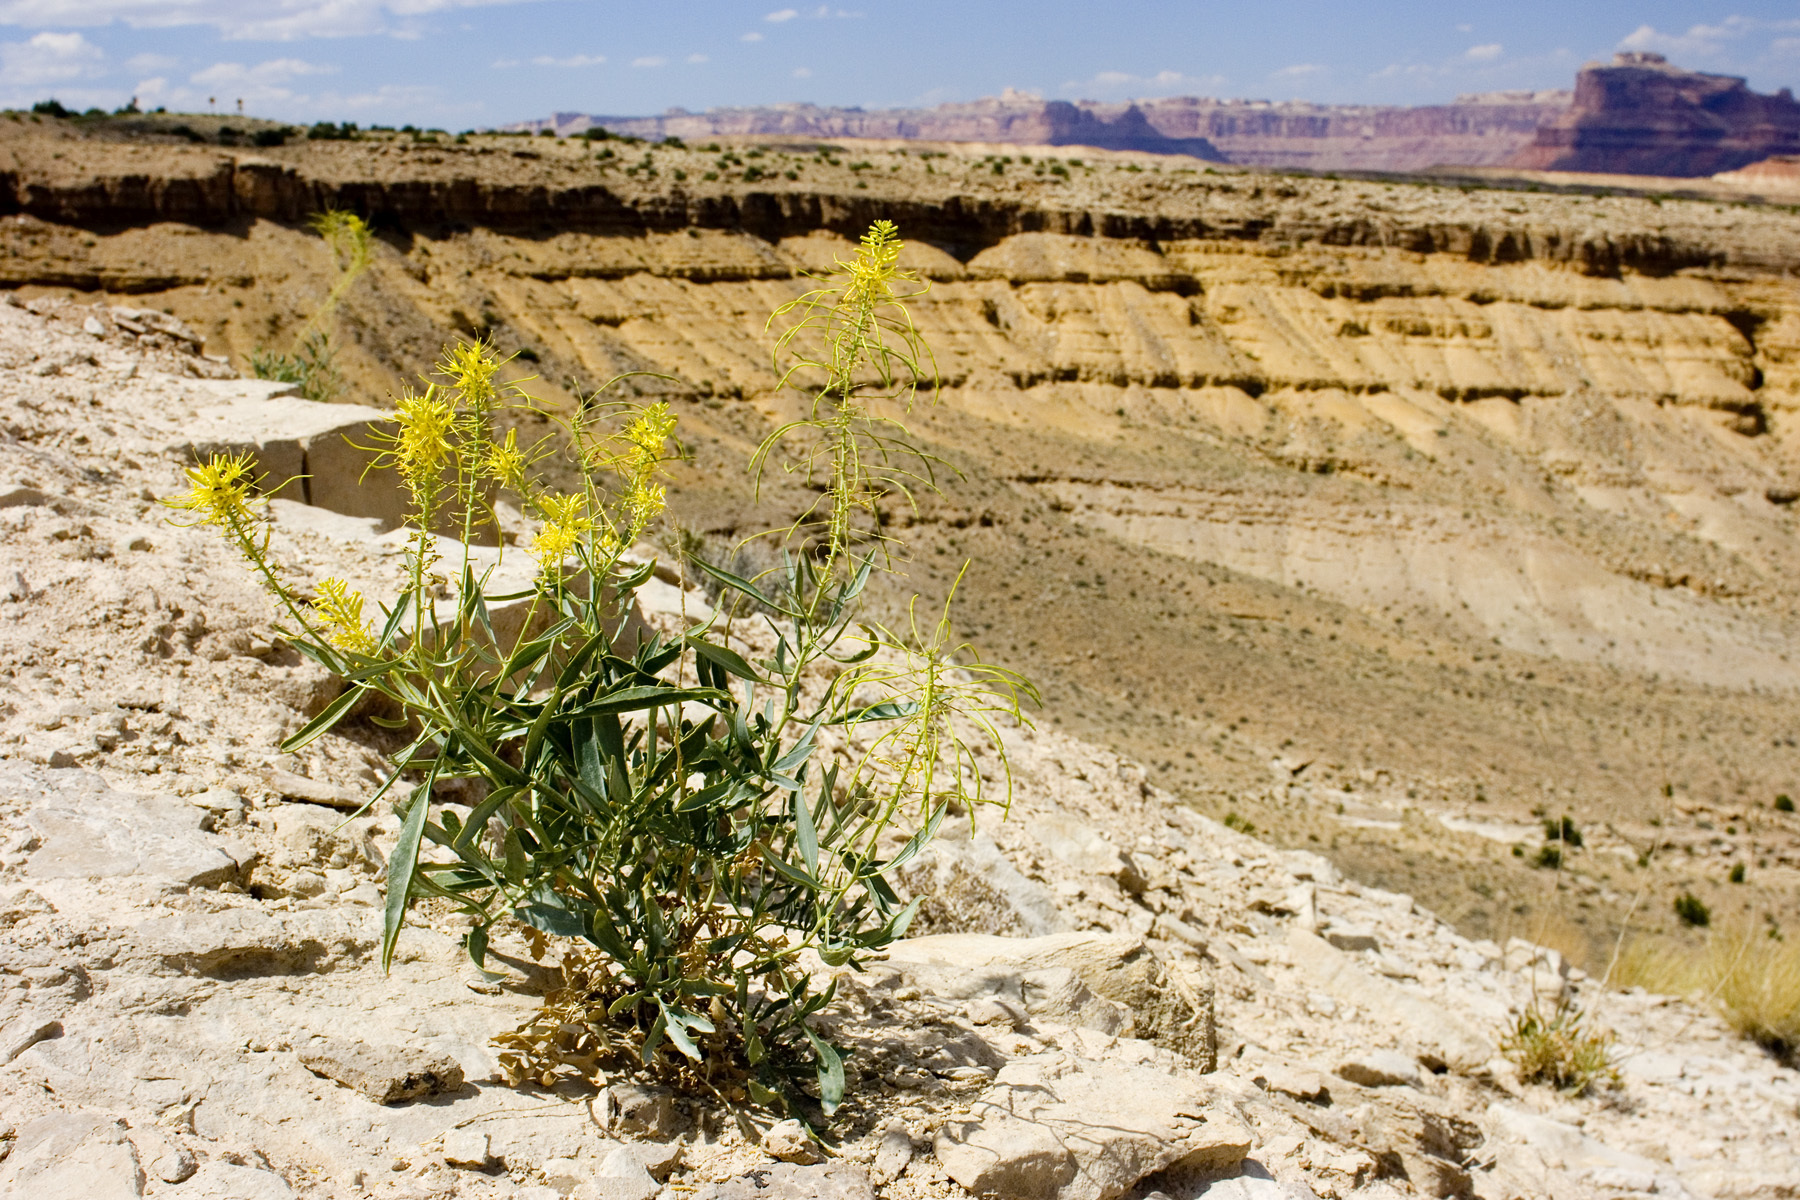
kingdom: Plantae
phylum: Tracheophyta
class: Magnoliopsida
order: Brassicales
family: Brassicaceae
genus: Stanleya
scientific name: Stanleya pinnata
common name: Prince's-plume
